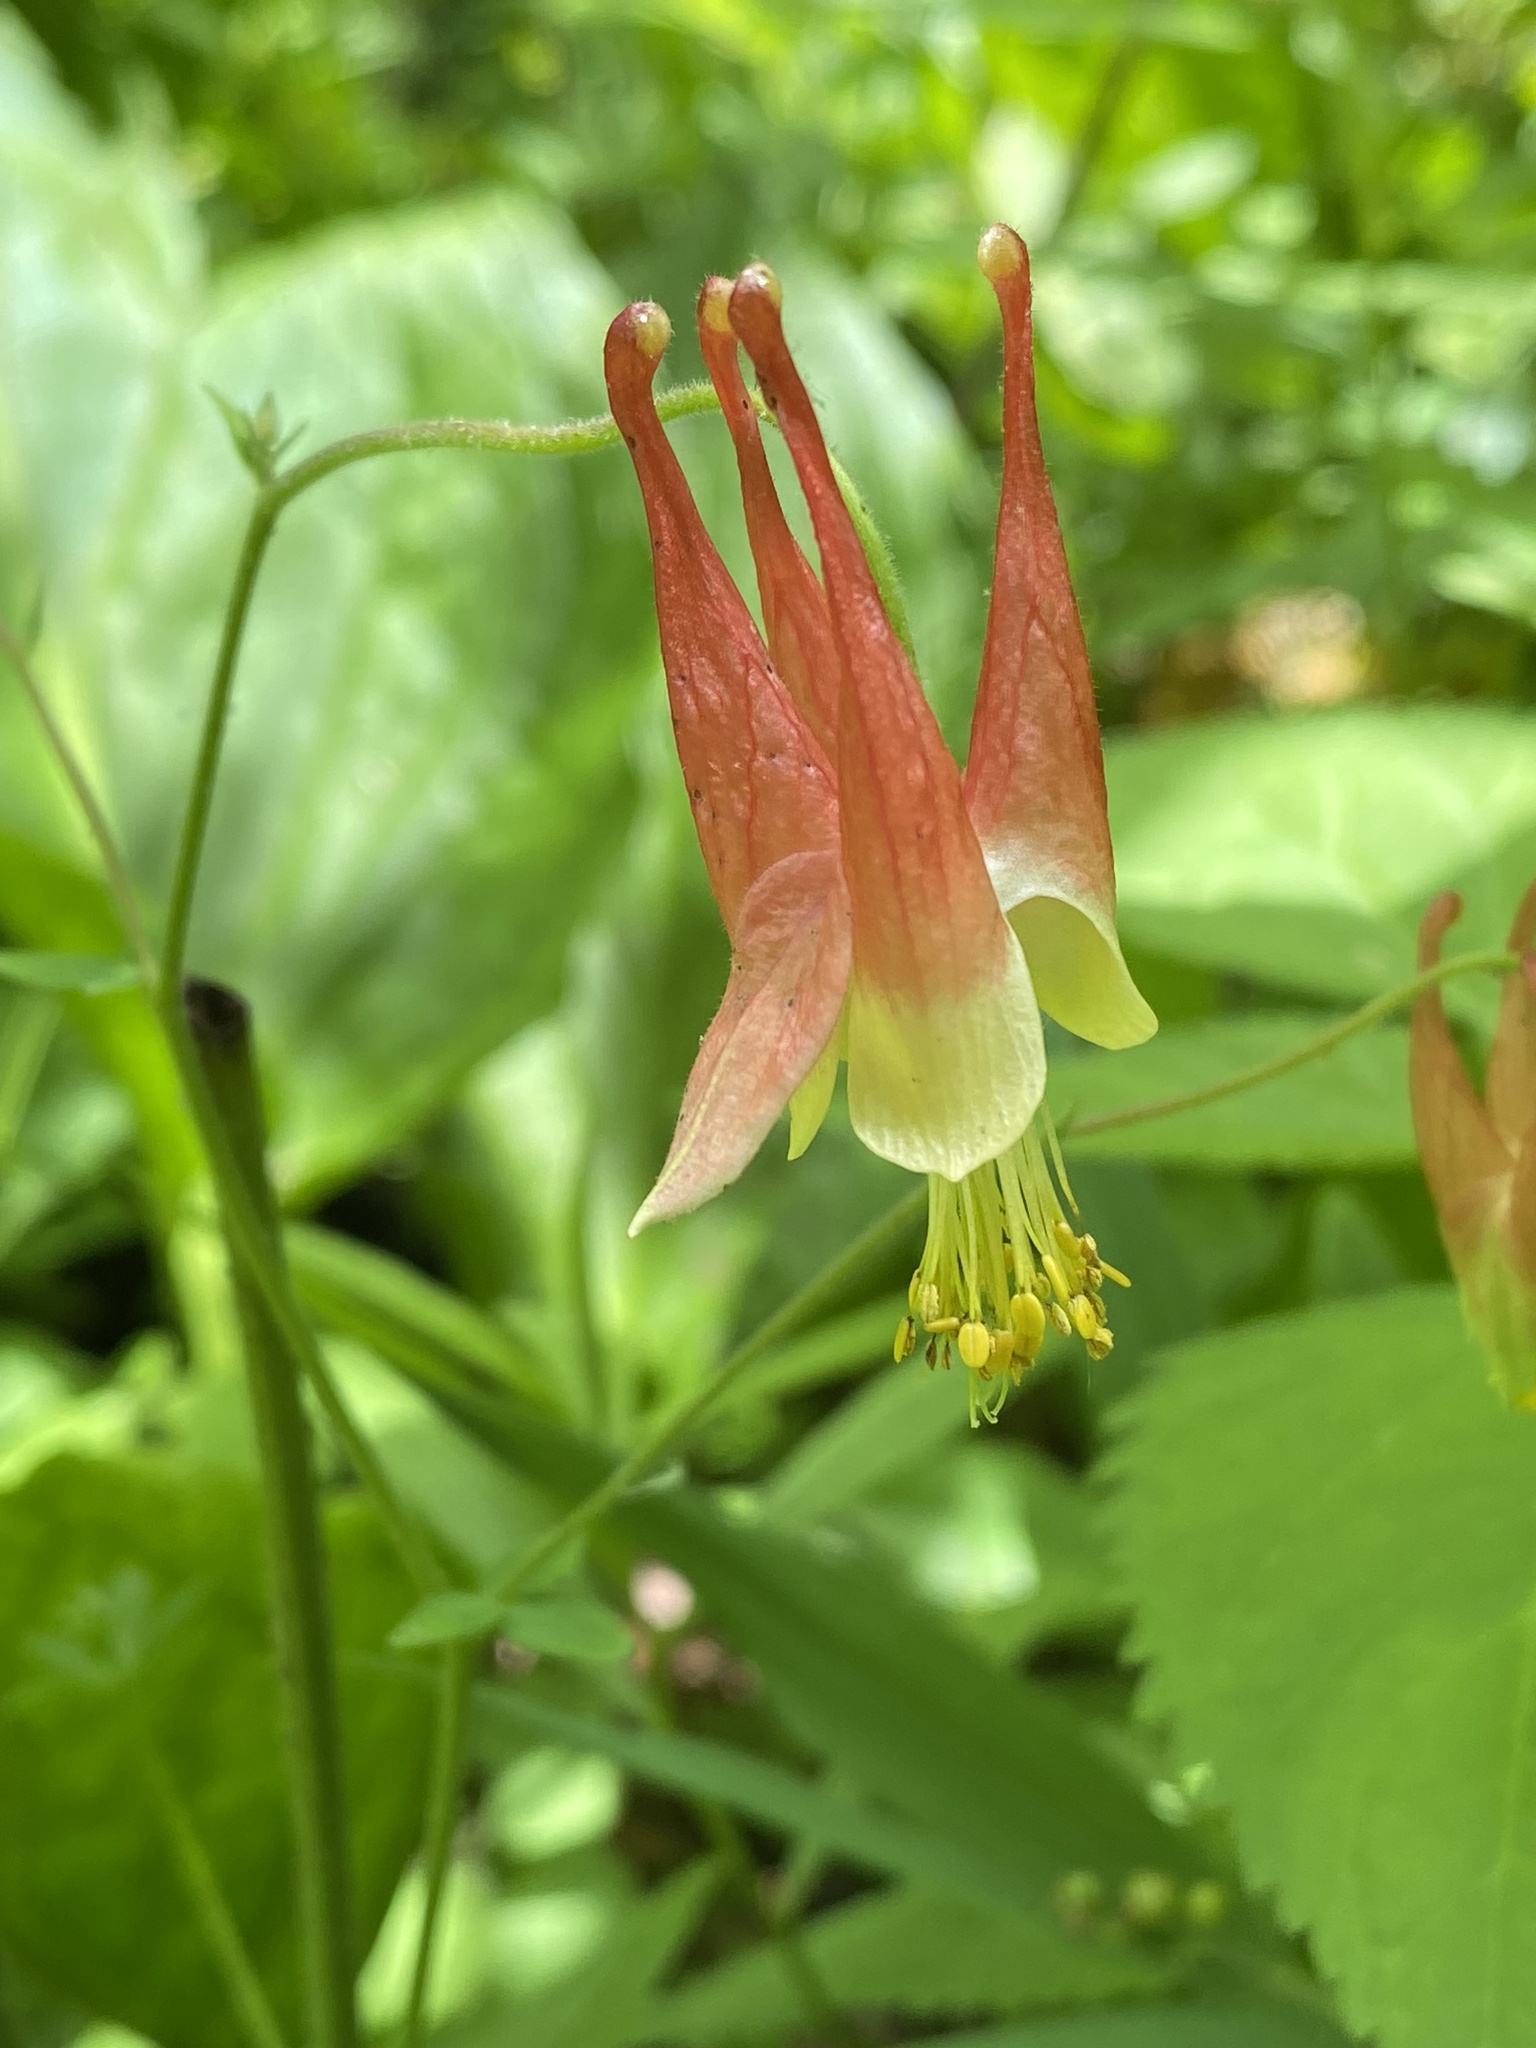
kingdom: Plantae
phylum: Tracheophyta
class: Magnoliopsida
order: Ranunculales
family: Ranunculaceae
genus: Aquilegia
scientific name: Aquilegia canadensis
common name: American columbine
